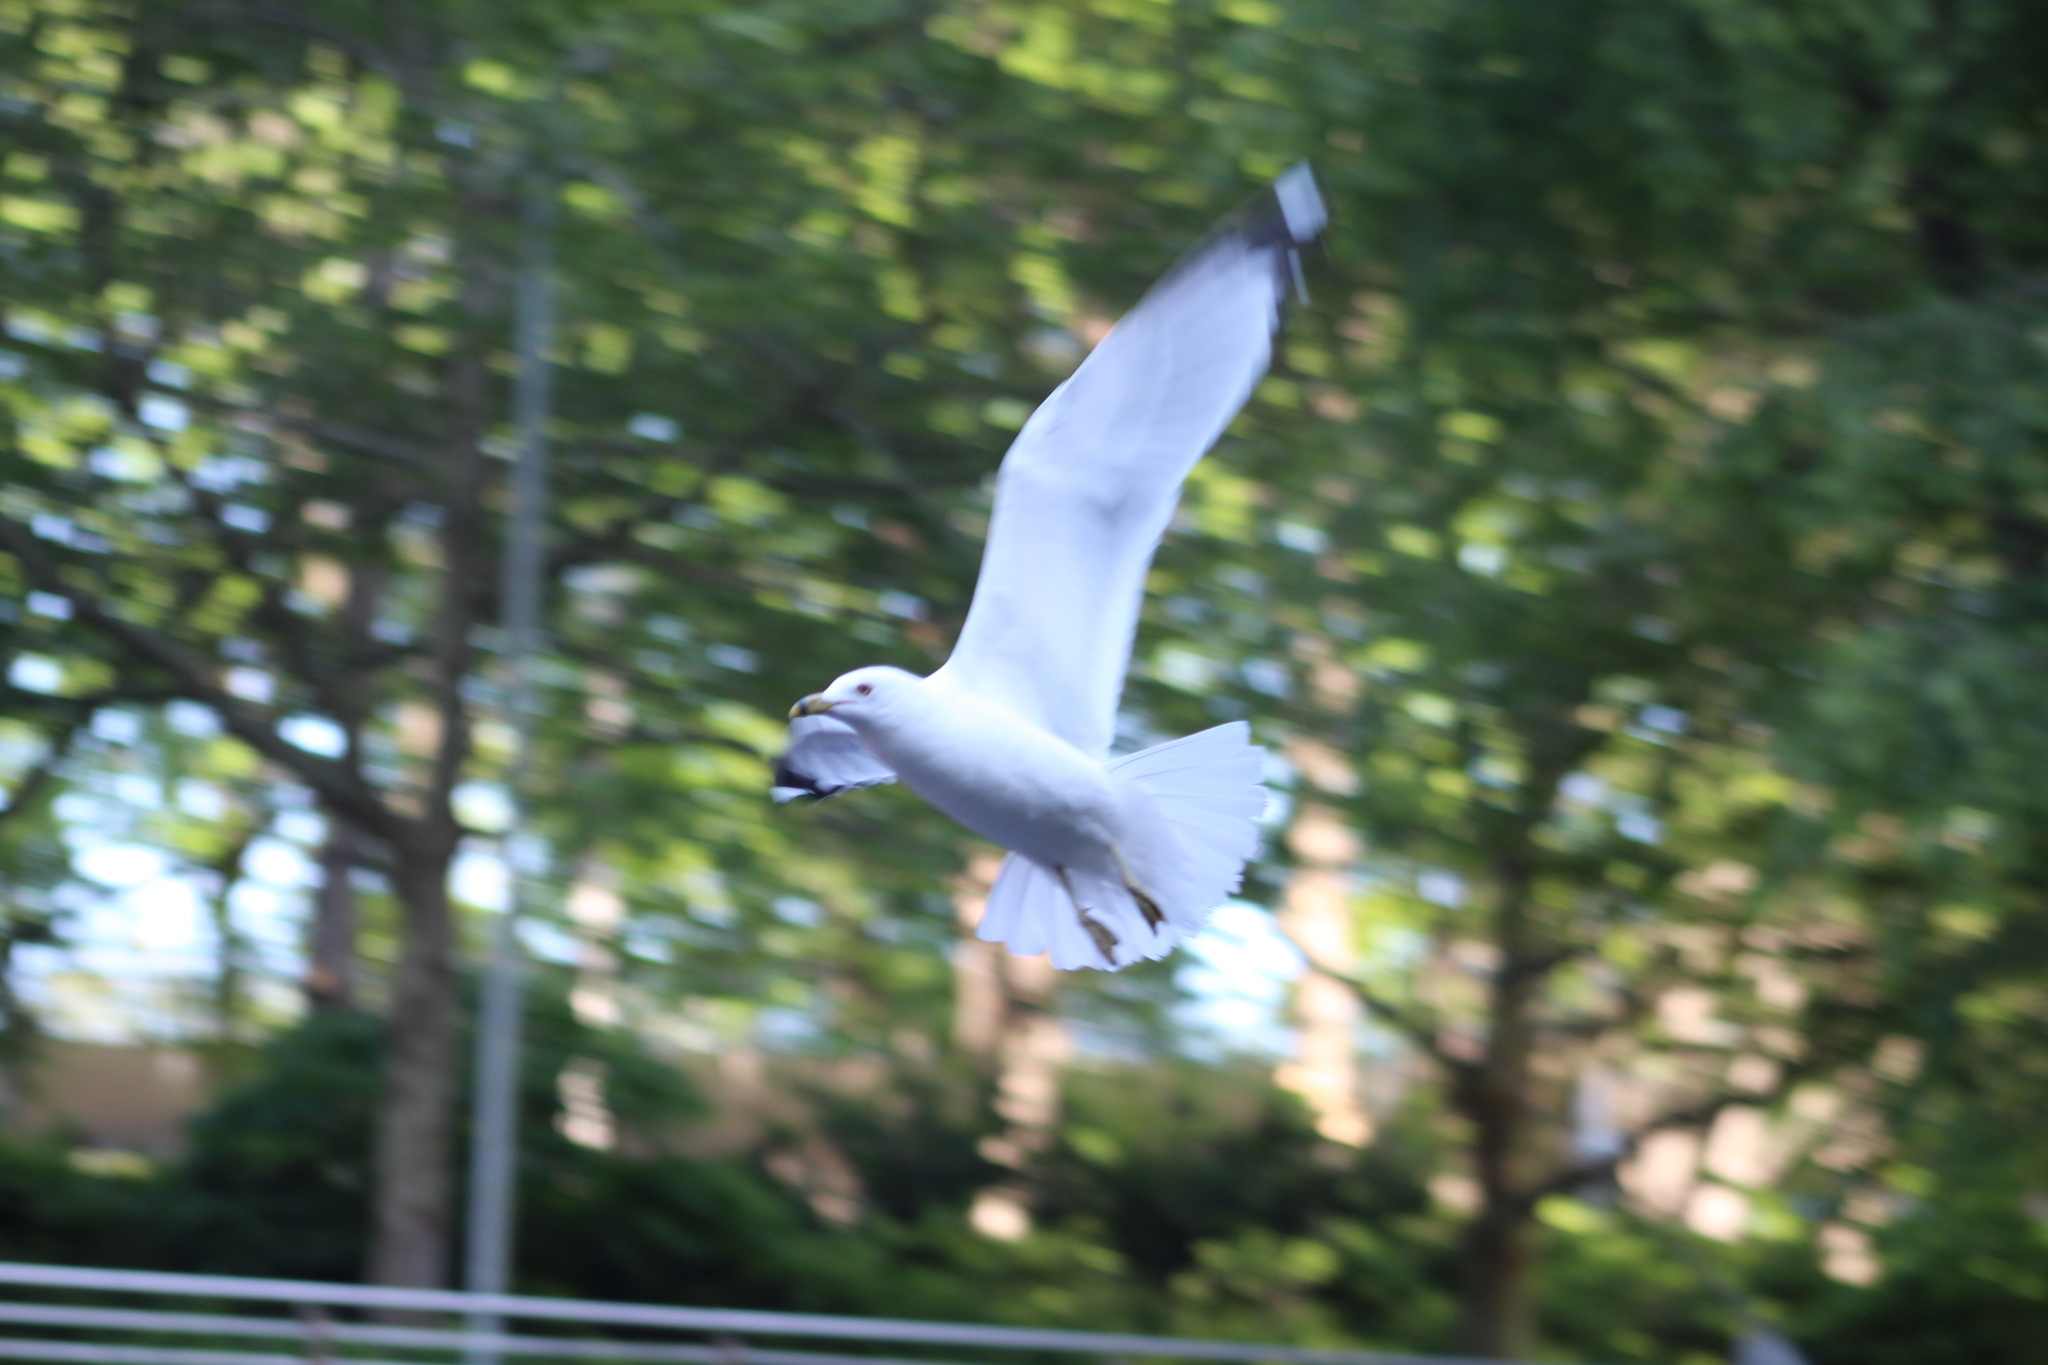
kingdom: Animalia
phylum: Chordata
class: Aves
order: Charadriiformes
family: Laridae
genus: Larus
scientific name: Larus delawarensis
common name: Ring-billed gull
